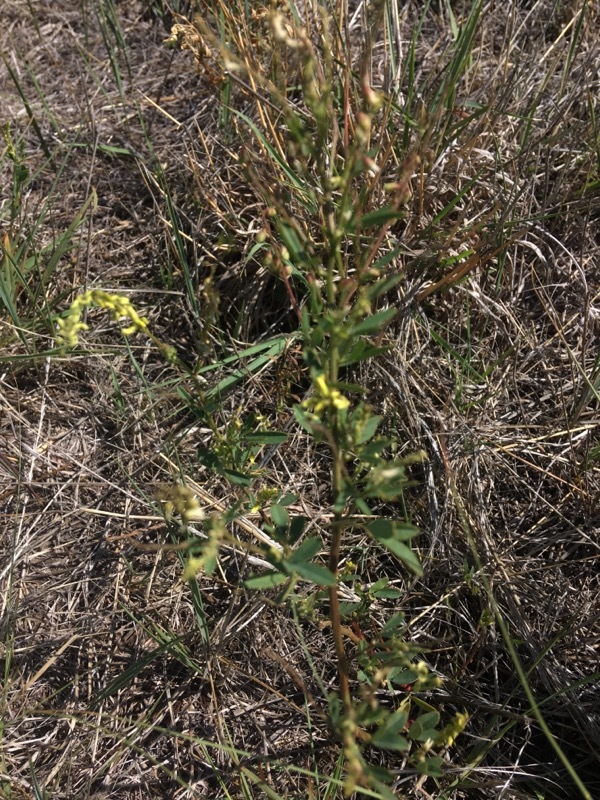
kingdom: Plantae
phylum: Tracheophyta
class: Magnoliopsida
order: Fabales
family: Fabaceae
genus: Melilotus
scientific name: Melilotus officinalis
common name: Sweetclover
